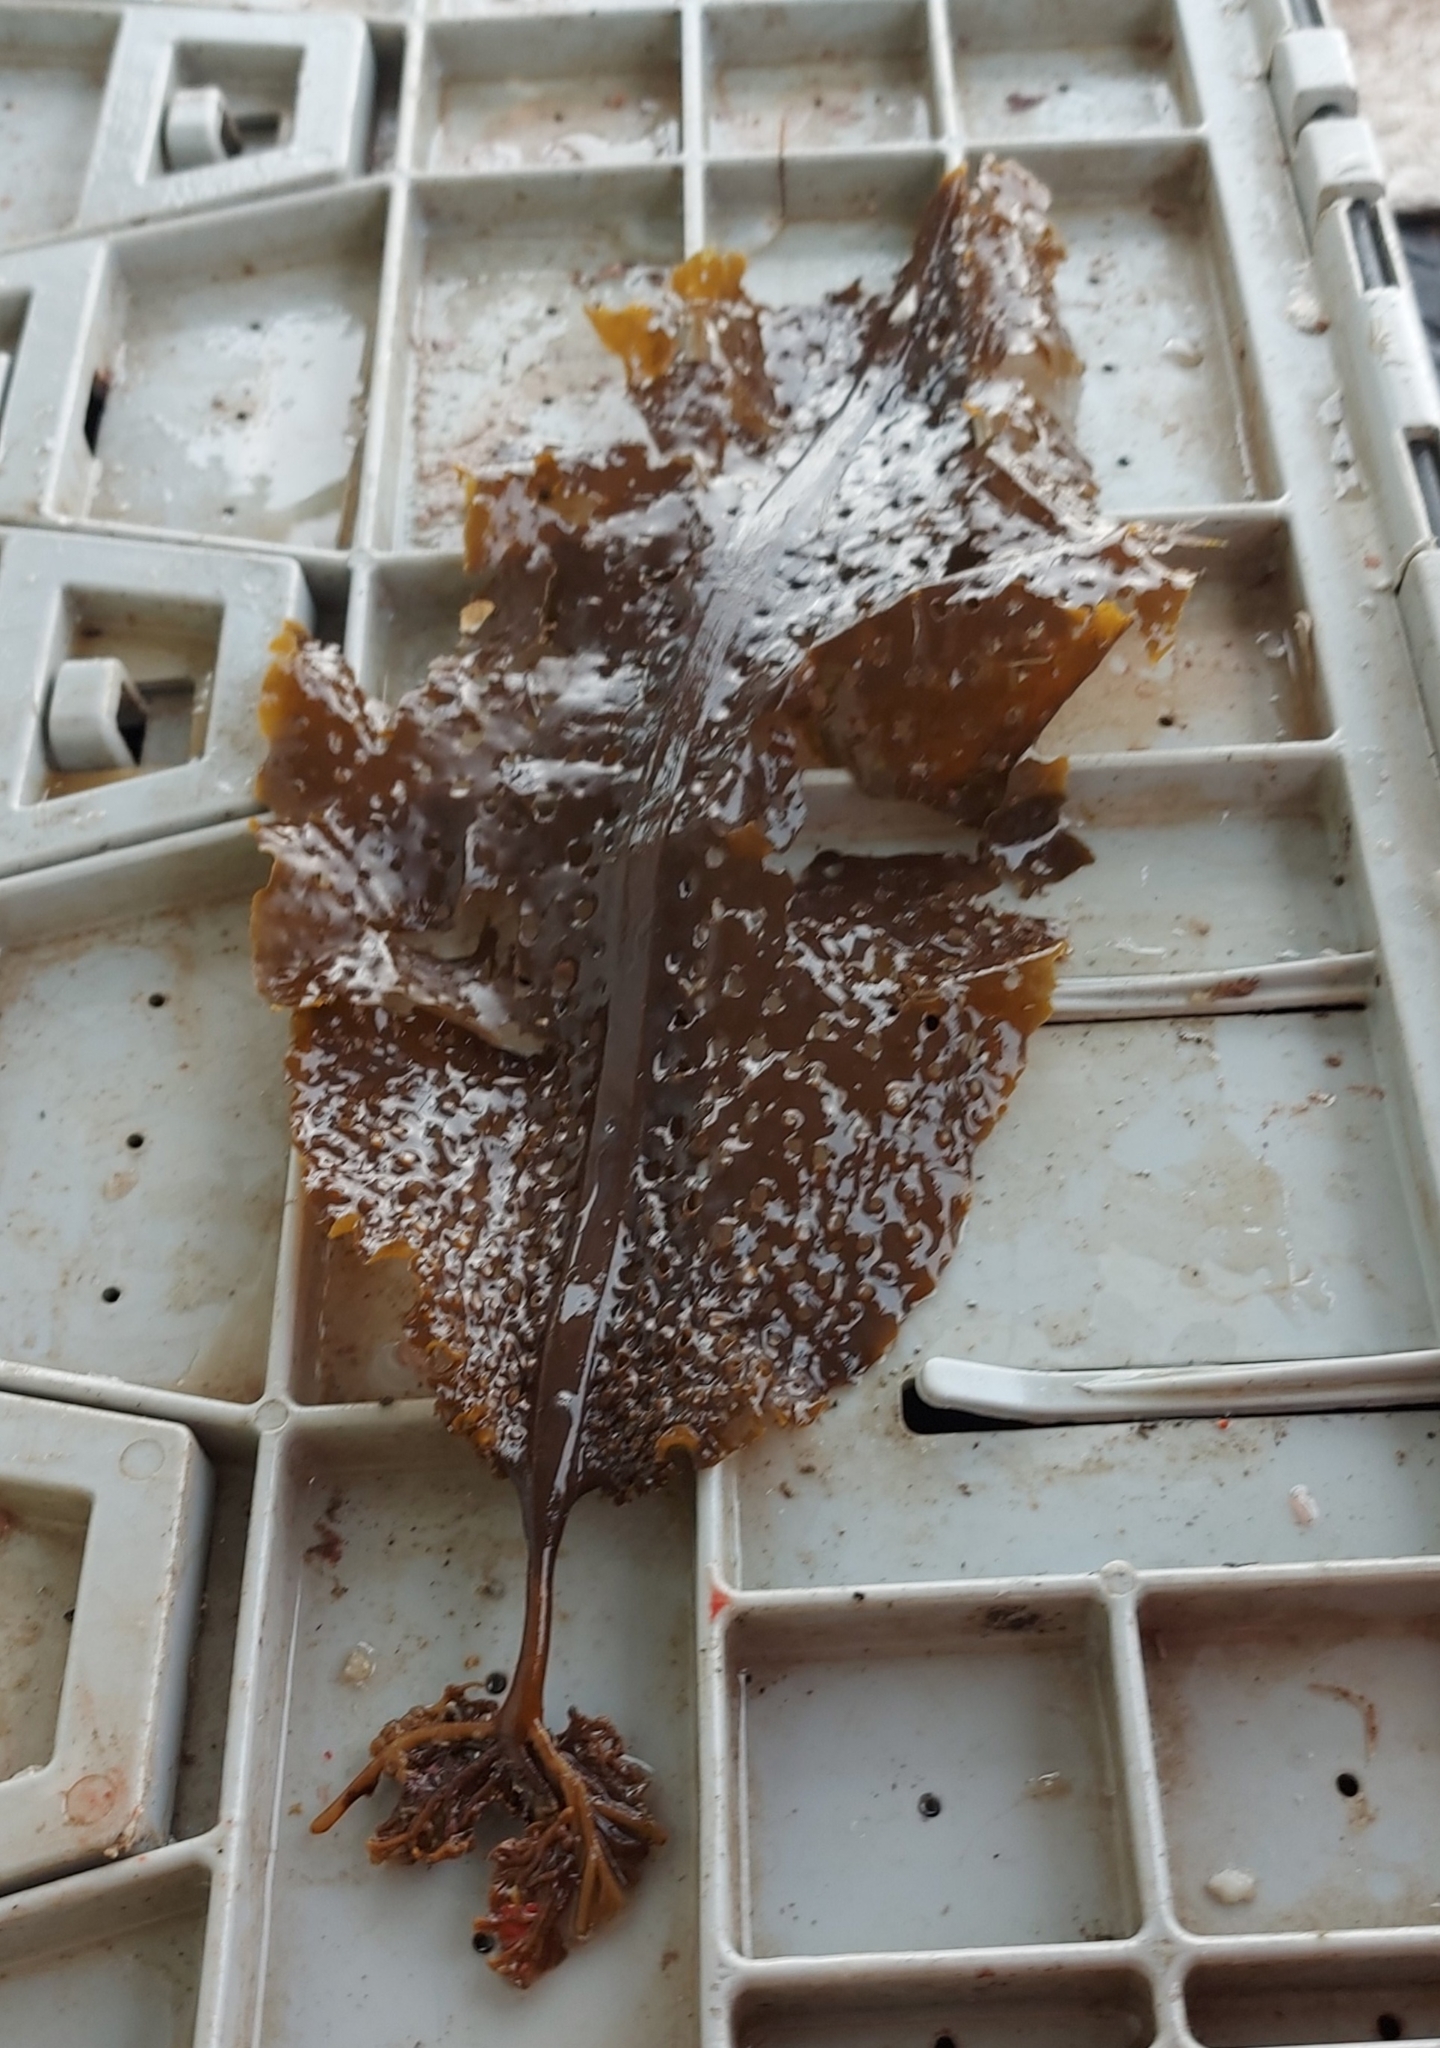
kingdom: Chromista
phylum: Ochrophyta
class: Phaeophyceae
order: Laminariales
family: Costariaceae
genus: Agarum
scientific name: Agarum clathratum
